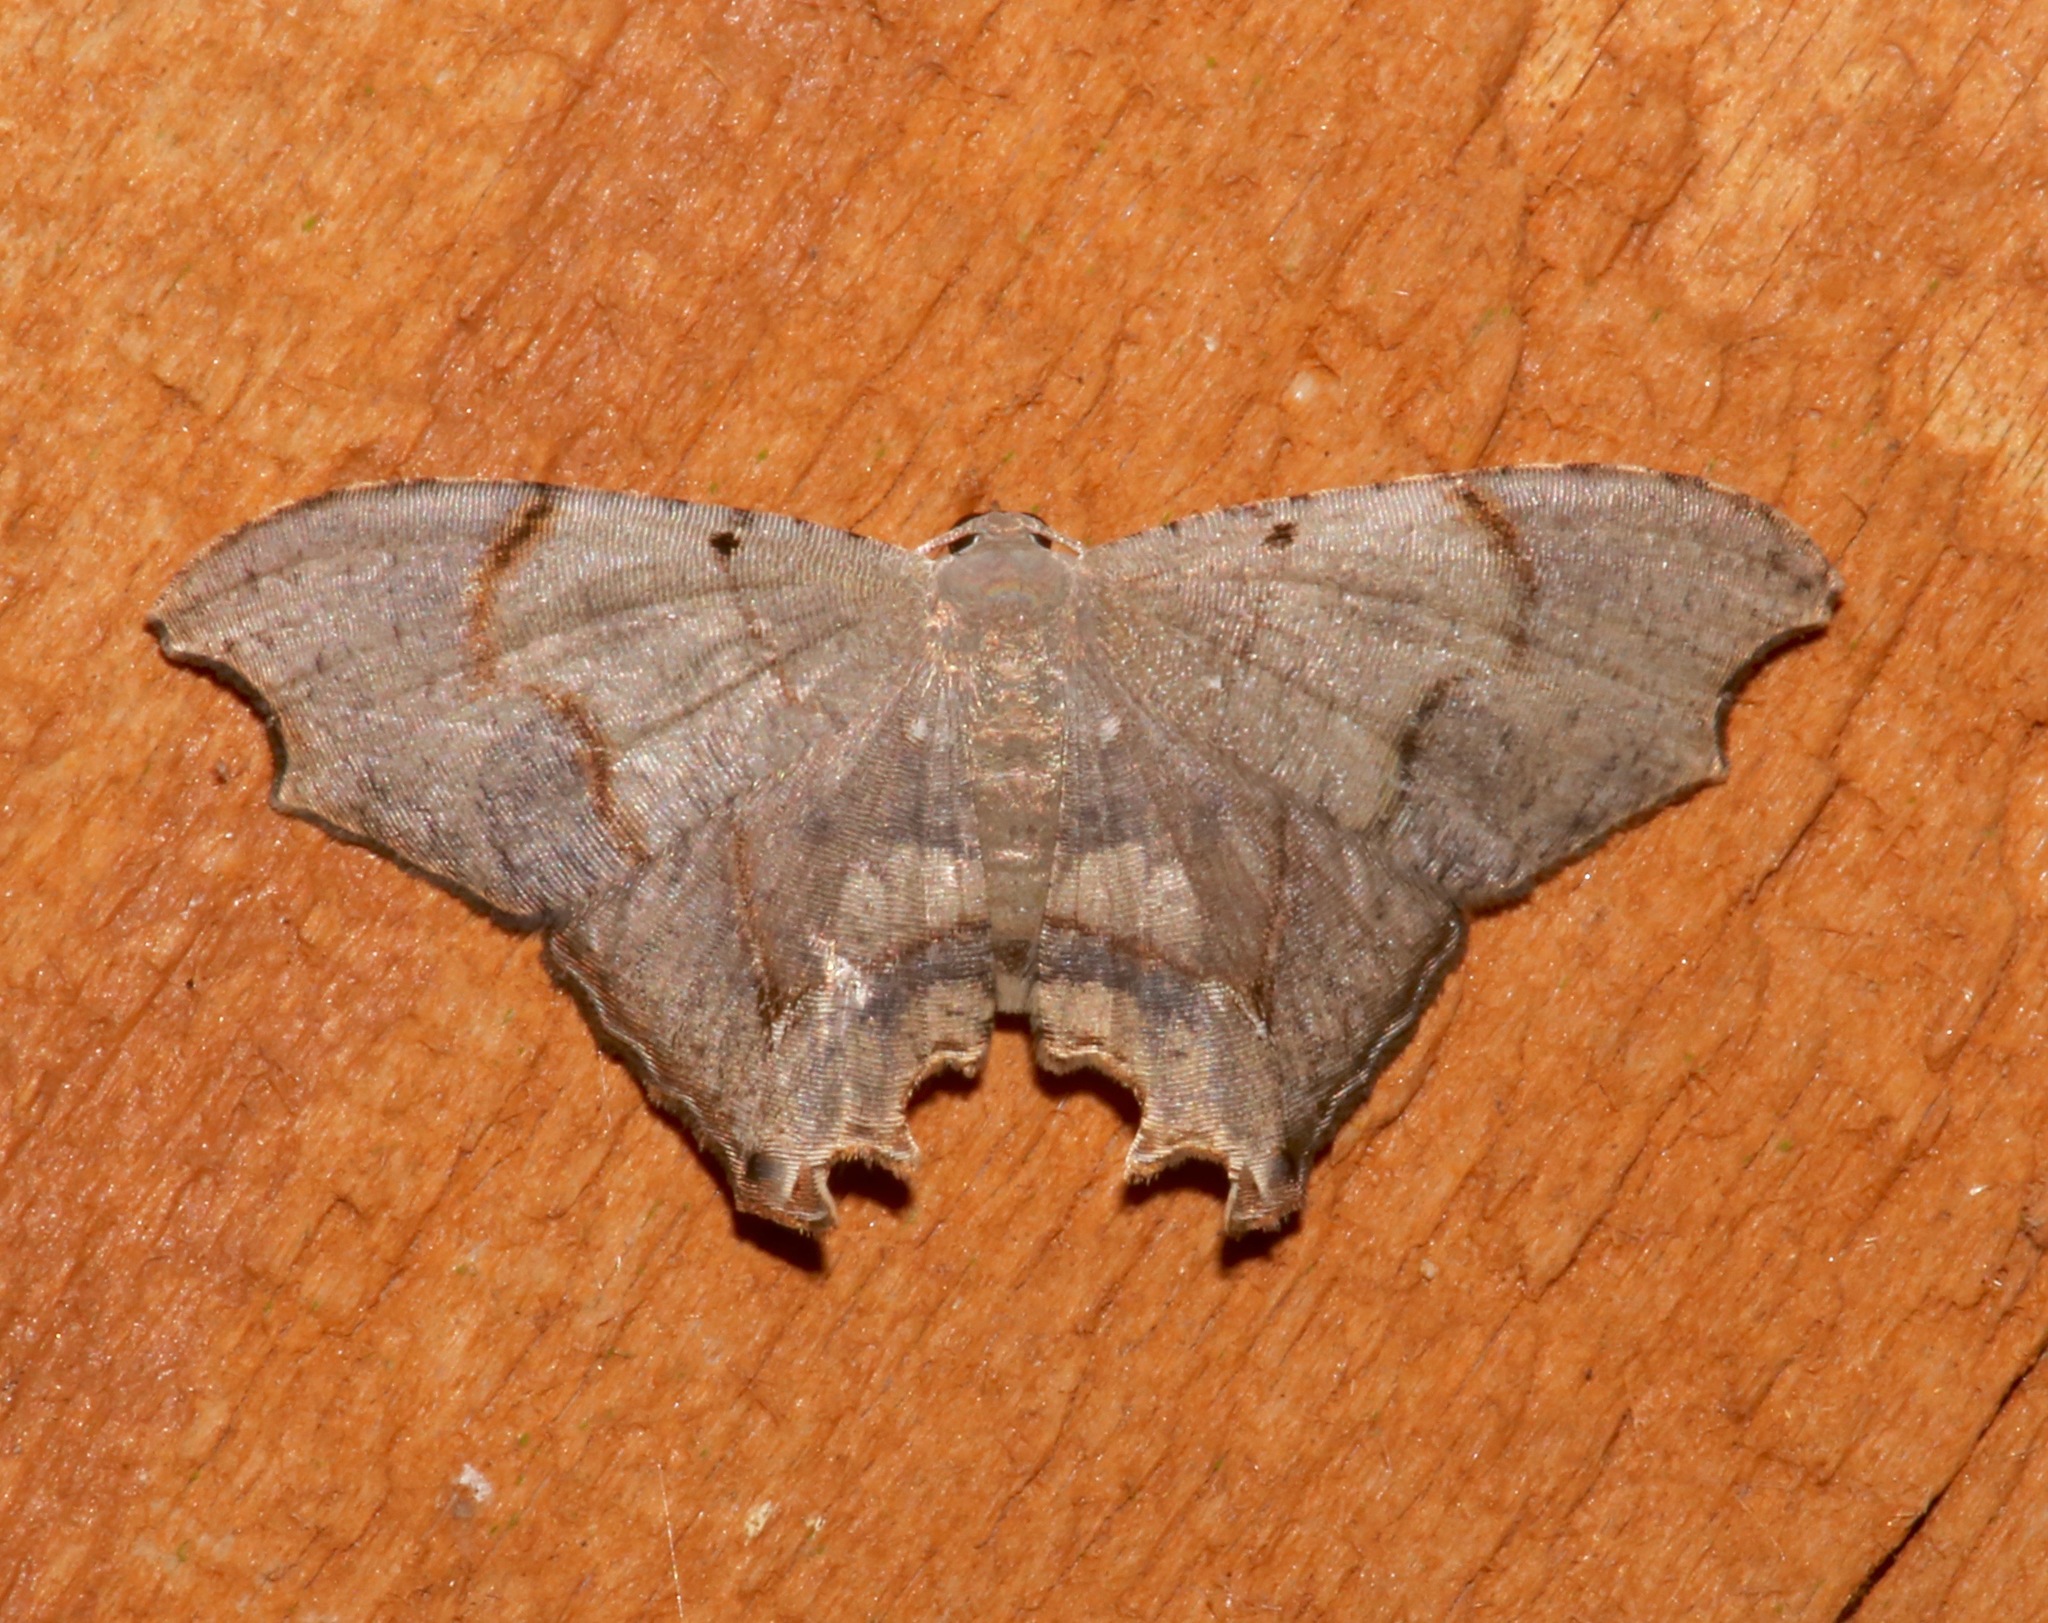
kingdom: Animalia
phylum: Arthropoda
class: Insecta
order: Lepidoptera
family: Uraniidae
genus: Trotorhombia
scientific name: Trotorhombia metachromata
